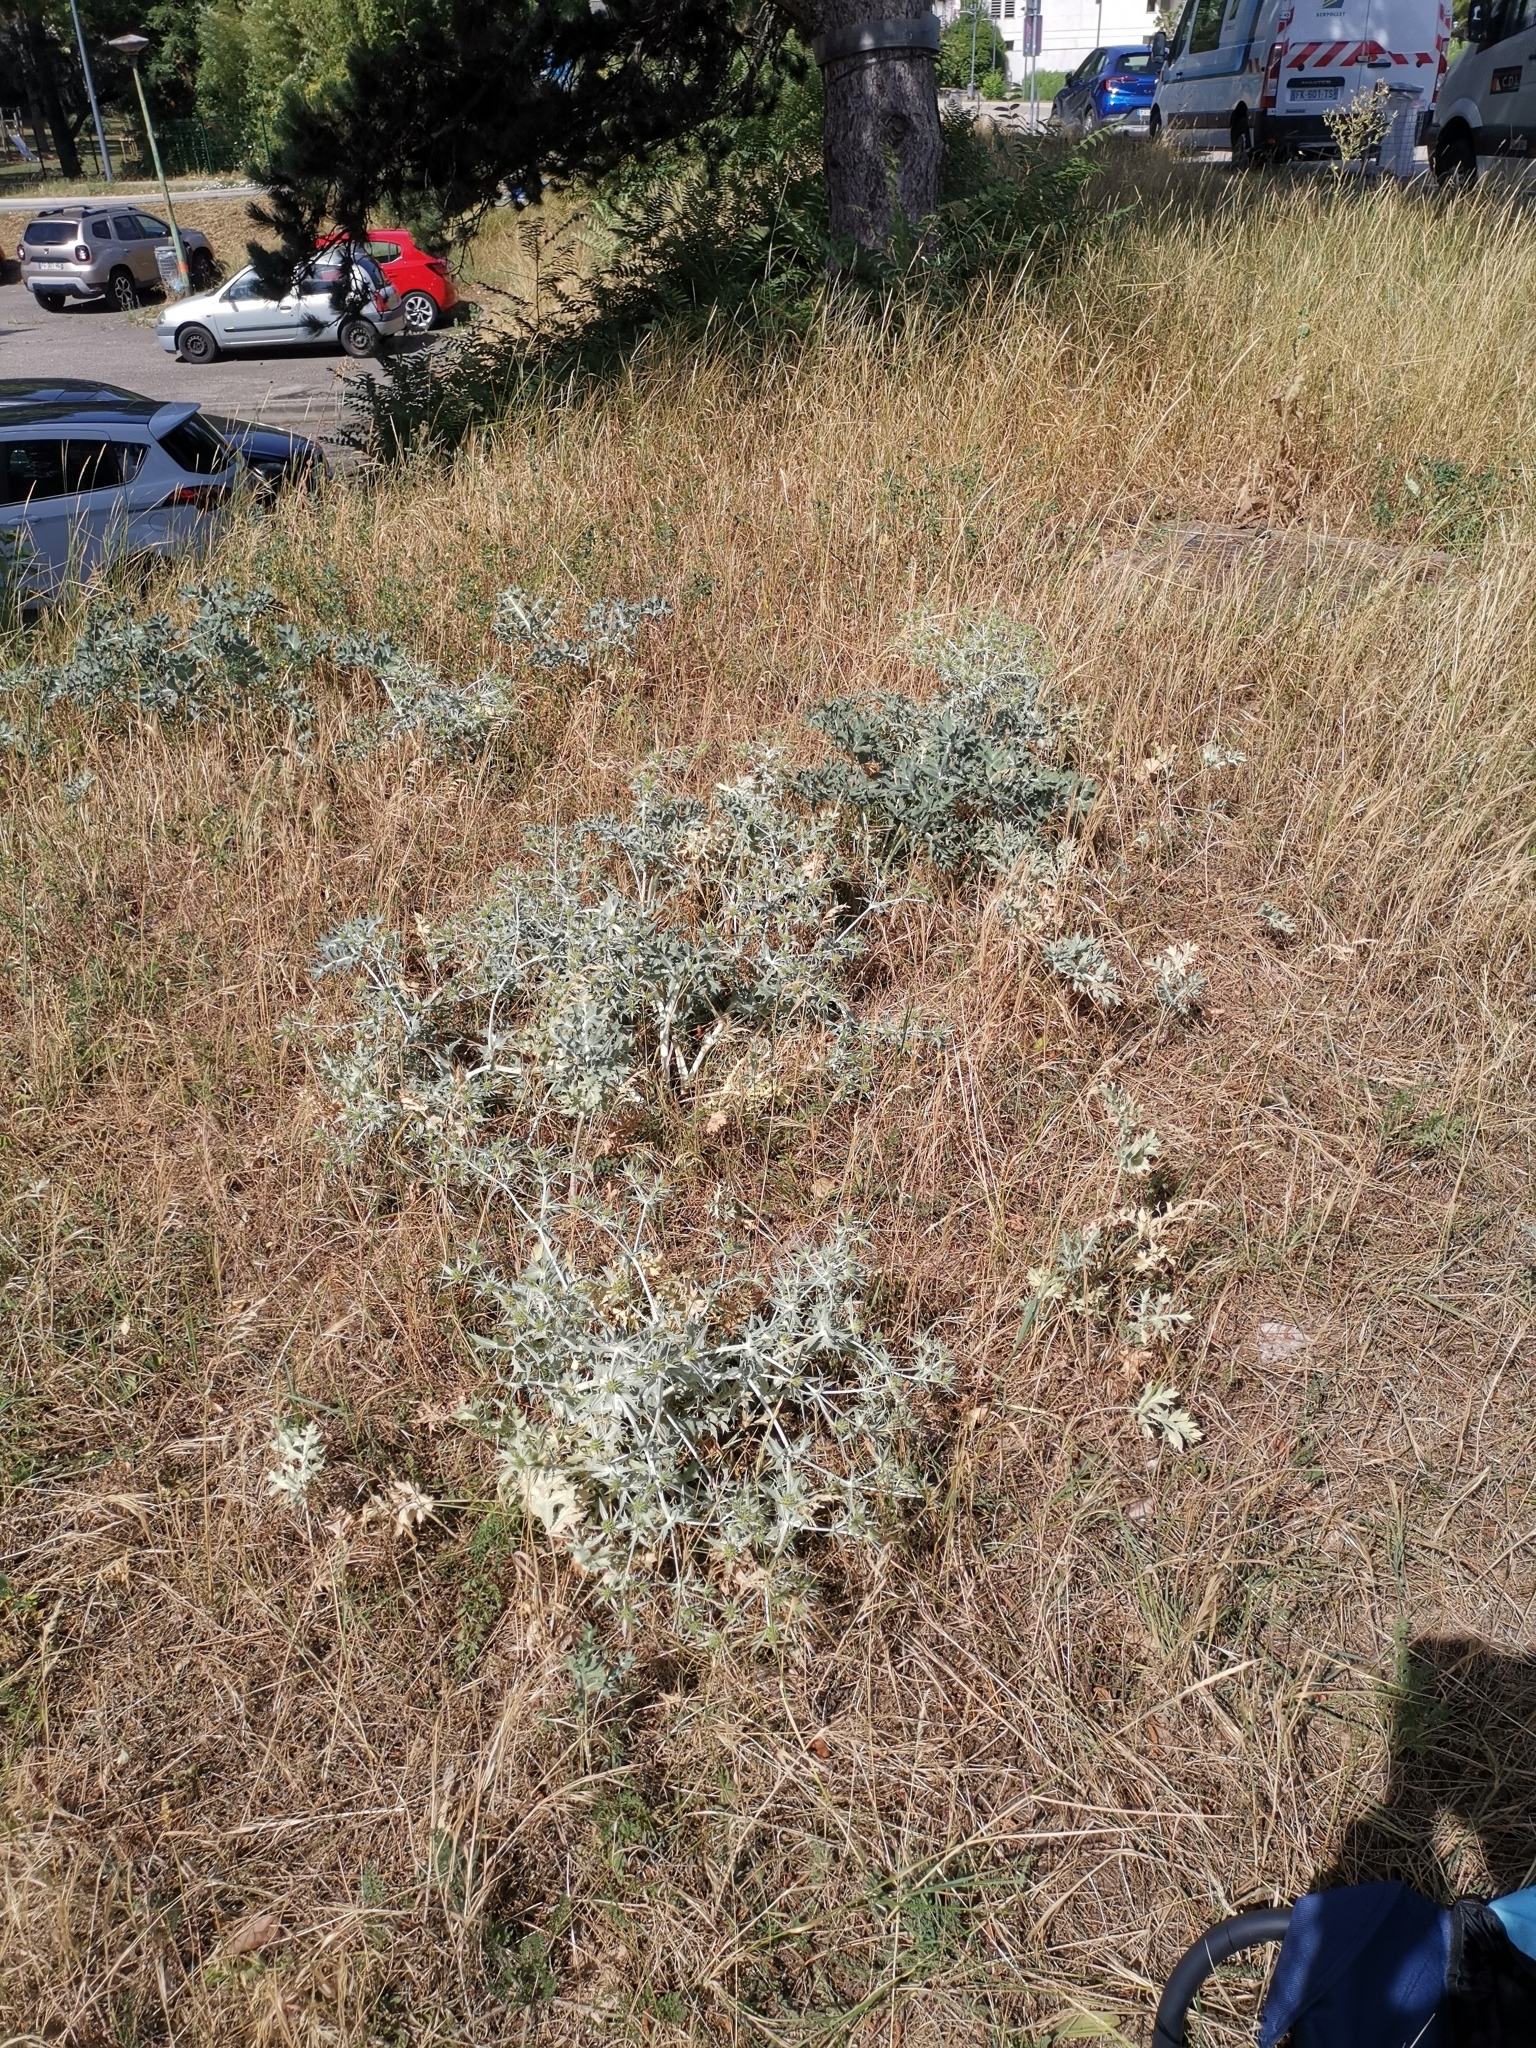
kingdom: Plantae
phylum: Tracheophyta
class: Magnoliopsida
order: Apiales
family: Apiaceae
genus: Eryngium
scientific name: Eryngium campestre
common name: Field eryngo
